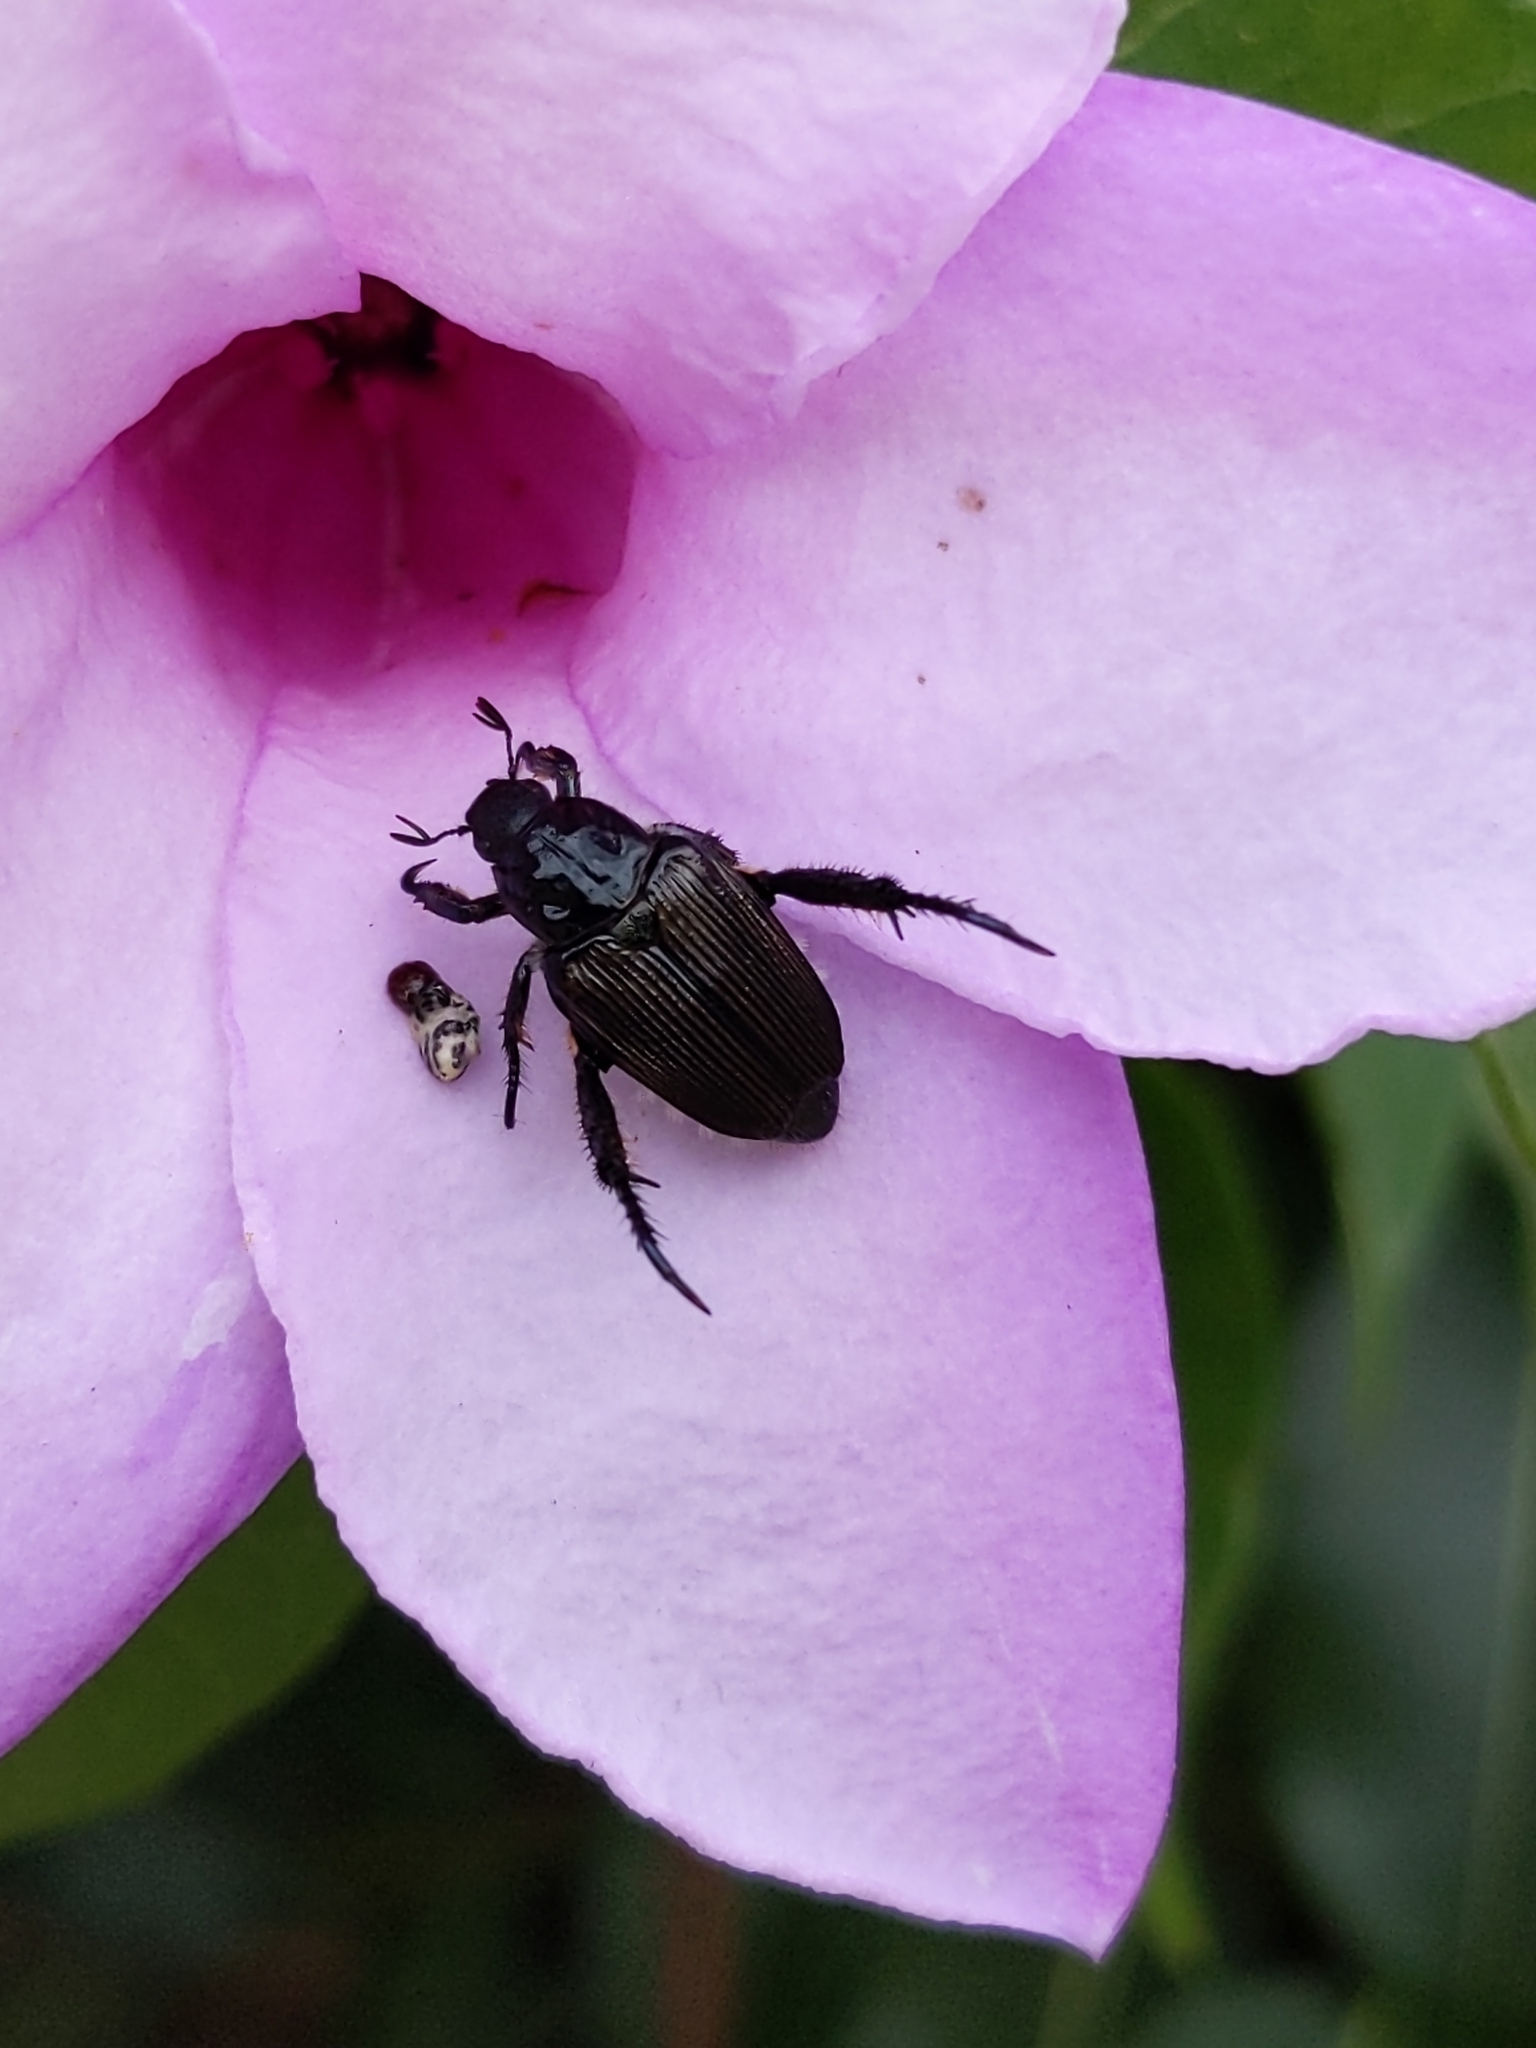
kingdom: Animalia
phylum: Arthropoda
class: Insecta
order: Coleoptera
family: Scarabaeidae
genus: Strigoderma
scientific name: Strigoderma sulcipennis
